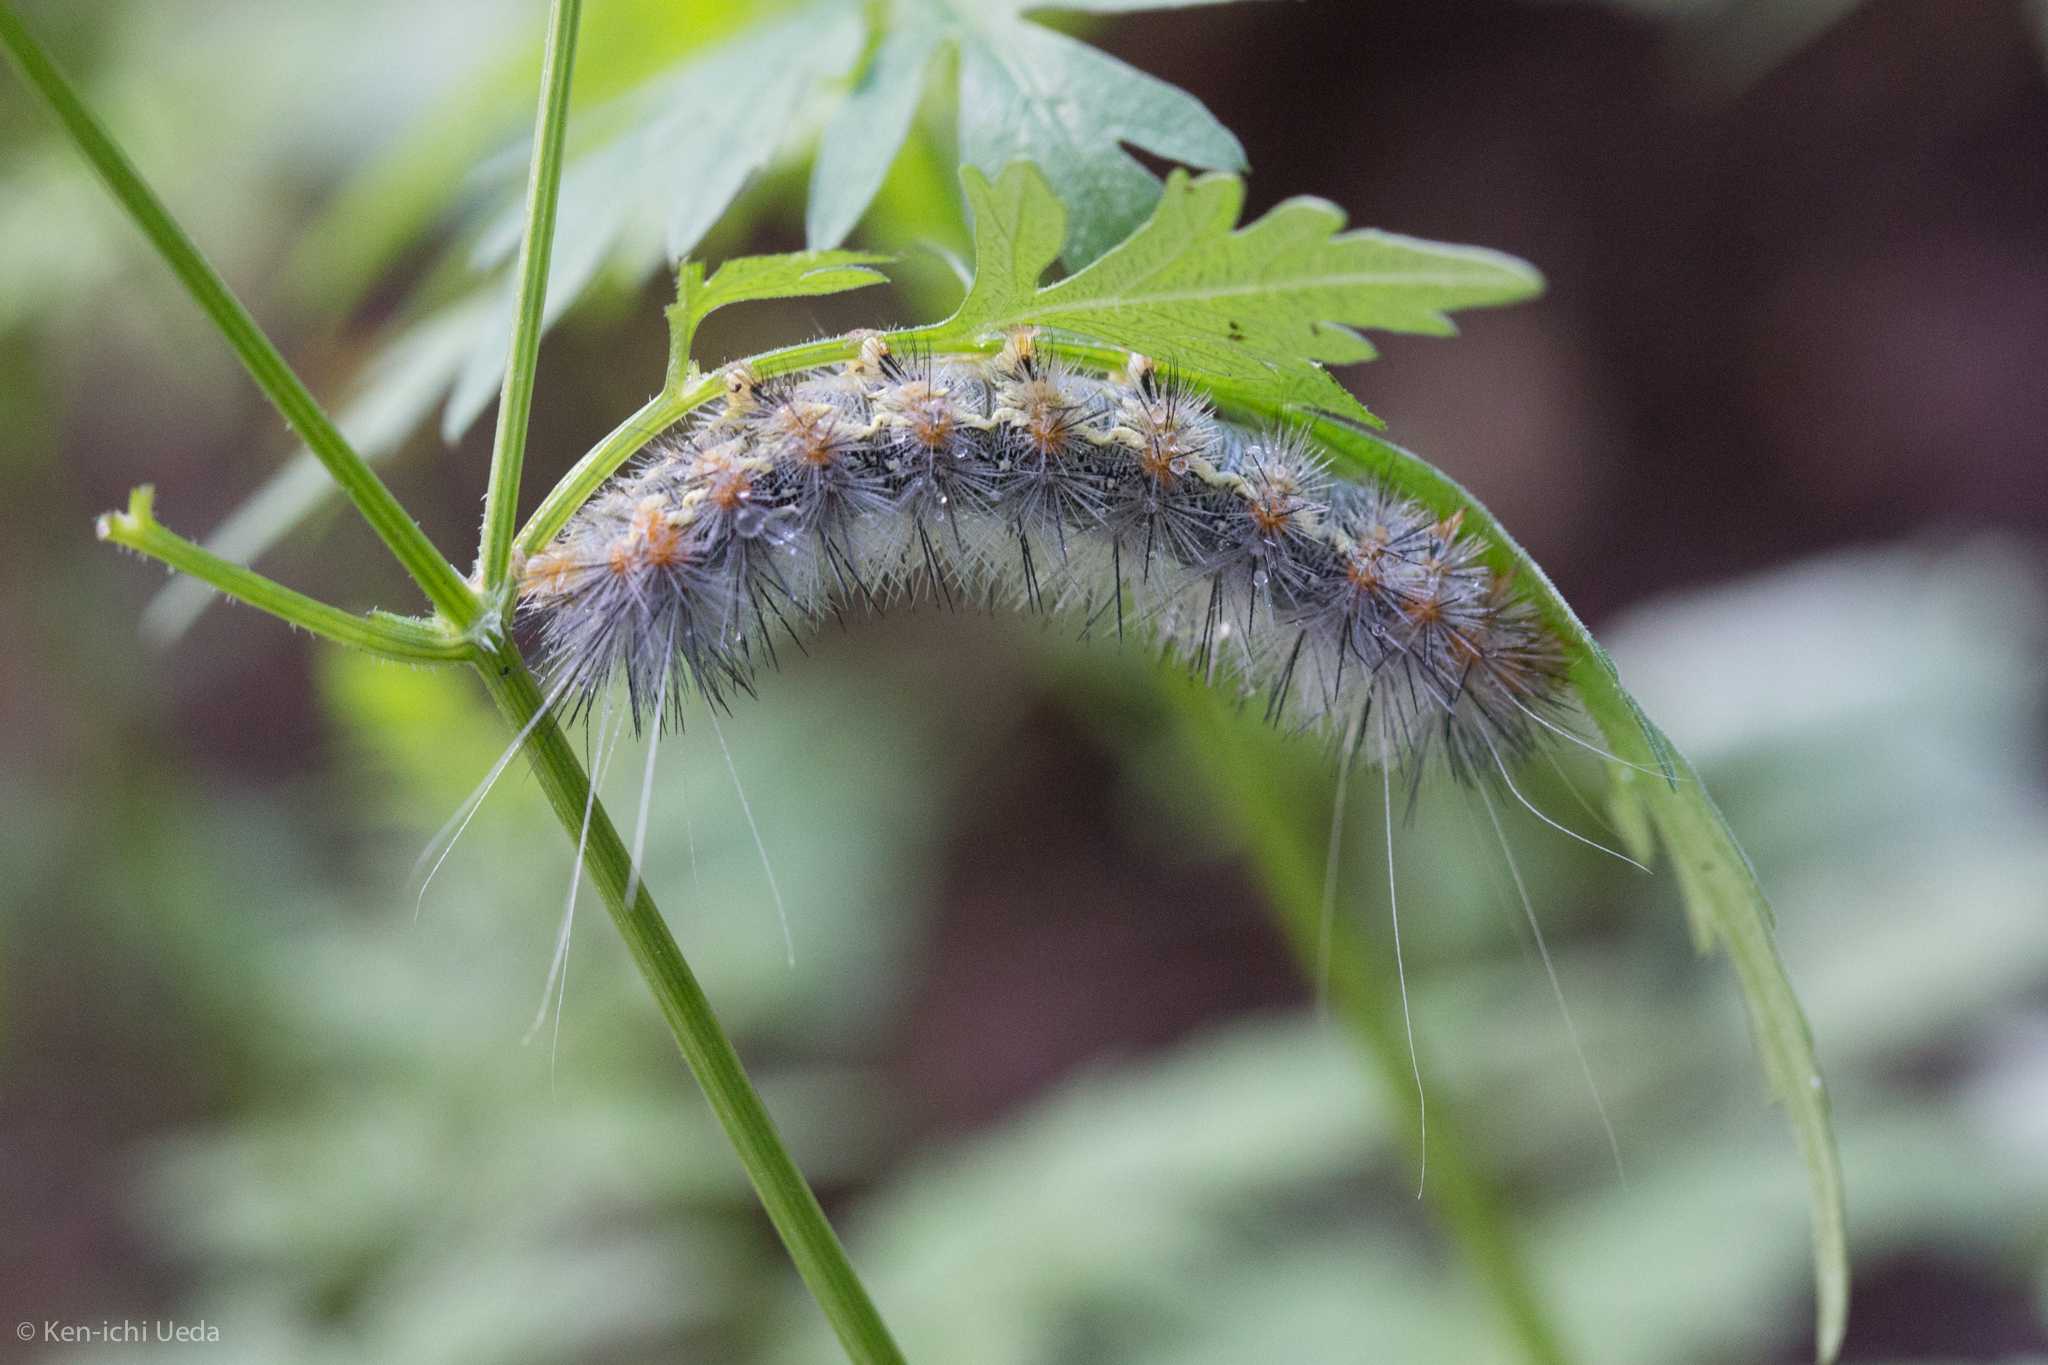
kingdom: Animalia
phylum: Arthropoda
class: Insecta
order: Lepidoptera
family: Erebidae
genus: Hypercompe
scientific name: Hypercompe suffusa
